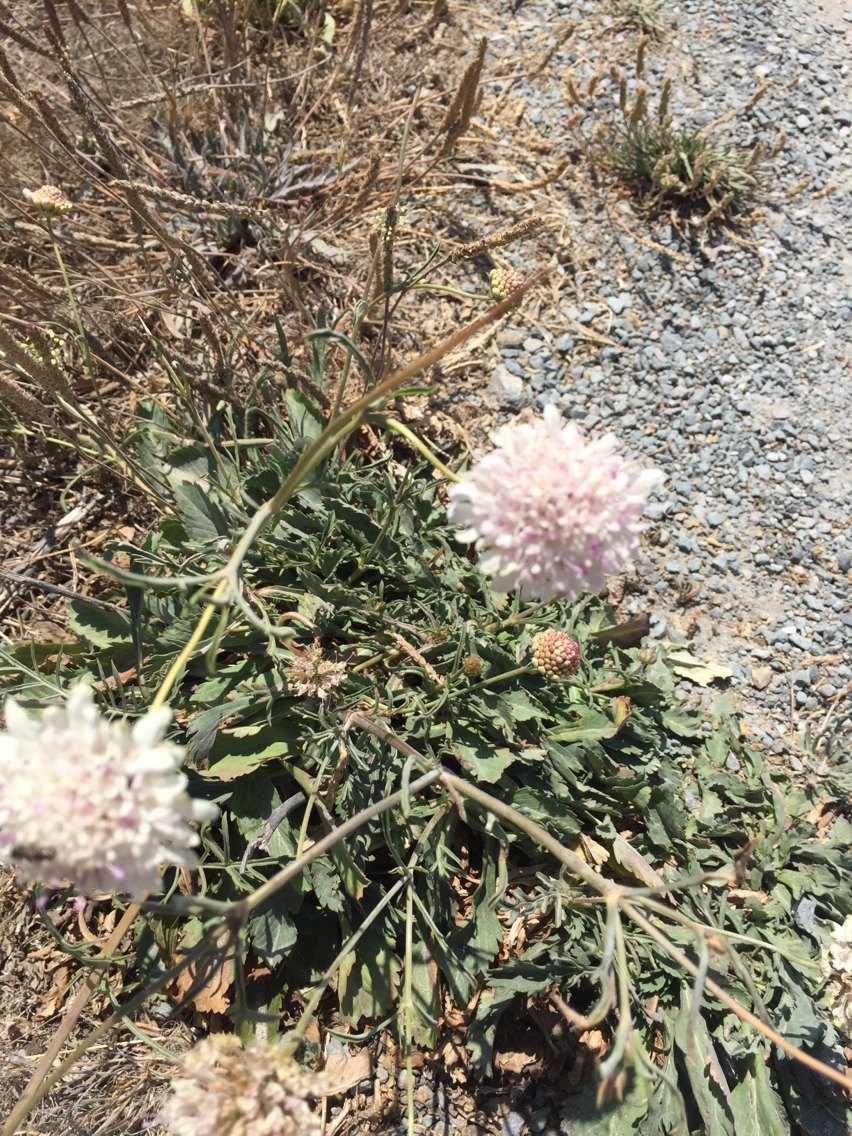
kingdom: Plantae
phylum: Tracheophyta
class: Magnoliopsida
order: Dipsacales
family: Caprifoliaceae
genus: Sixalix
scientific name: Sixalix atropurpurea
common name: Sweet scabious
